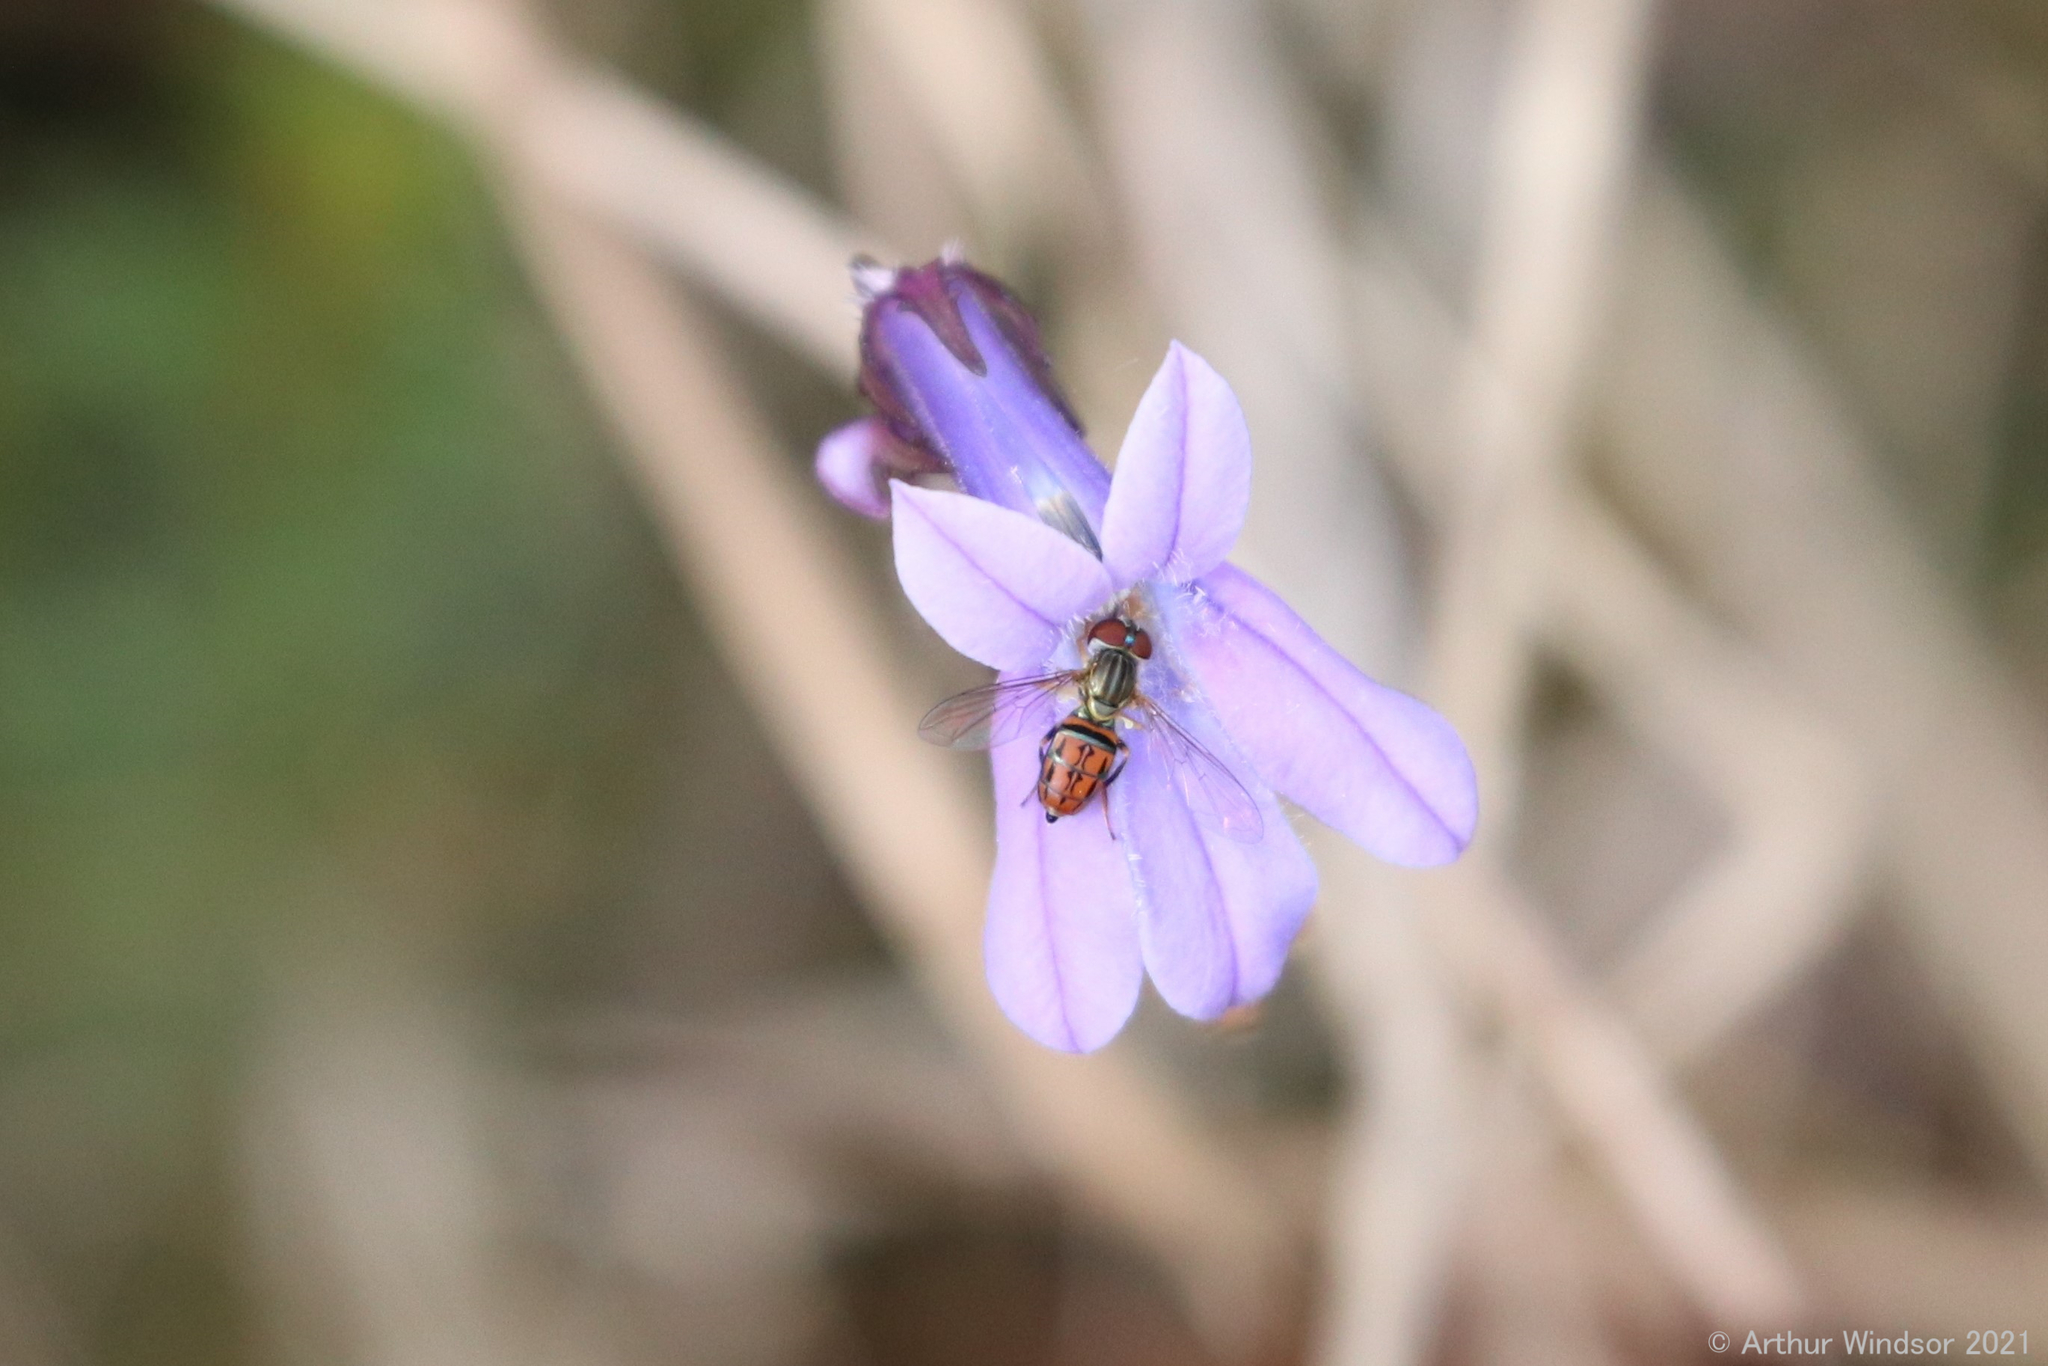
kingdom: Animalia
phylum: Arthropoda
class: Insecta
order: Diptera
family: Syrphidae
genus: Toxomerus
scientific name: Toxomerus boscii
